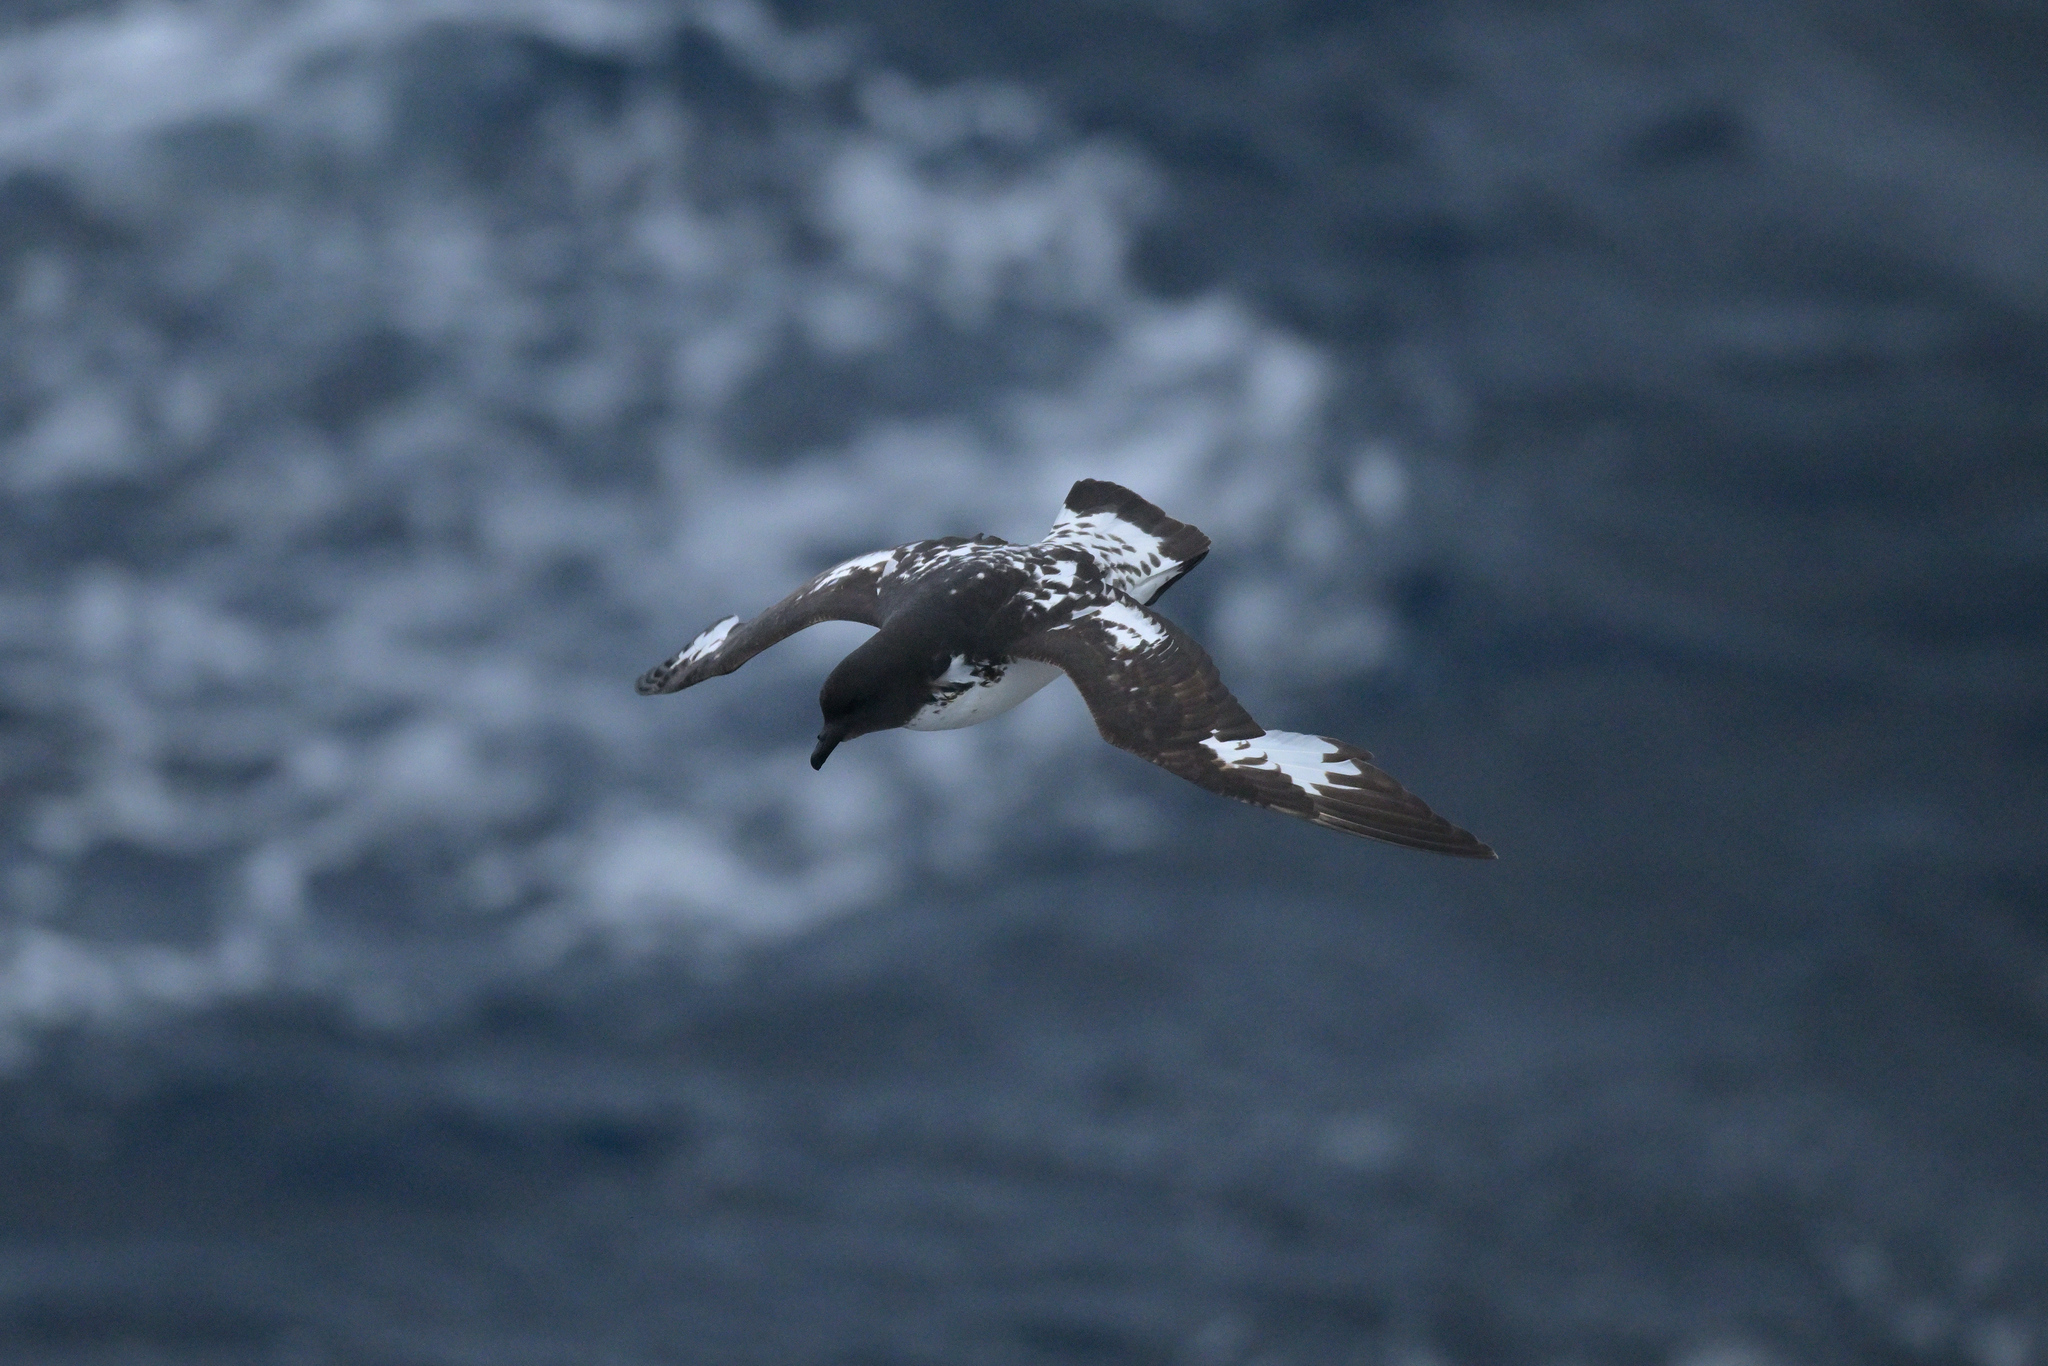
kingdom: Animalia
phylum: Chordata
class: Aves
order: Procellariiformes
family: Procellariidae
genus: Daption
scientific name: Daption capense
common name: Cape petrel
